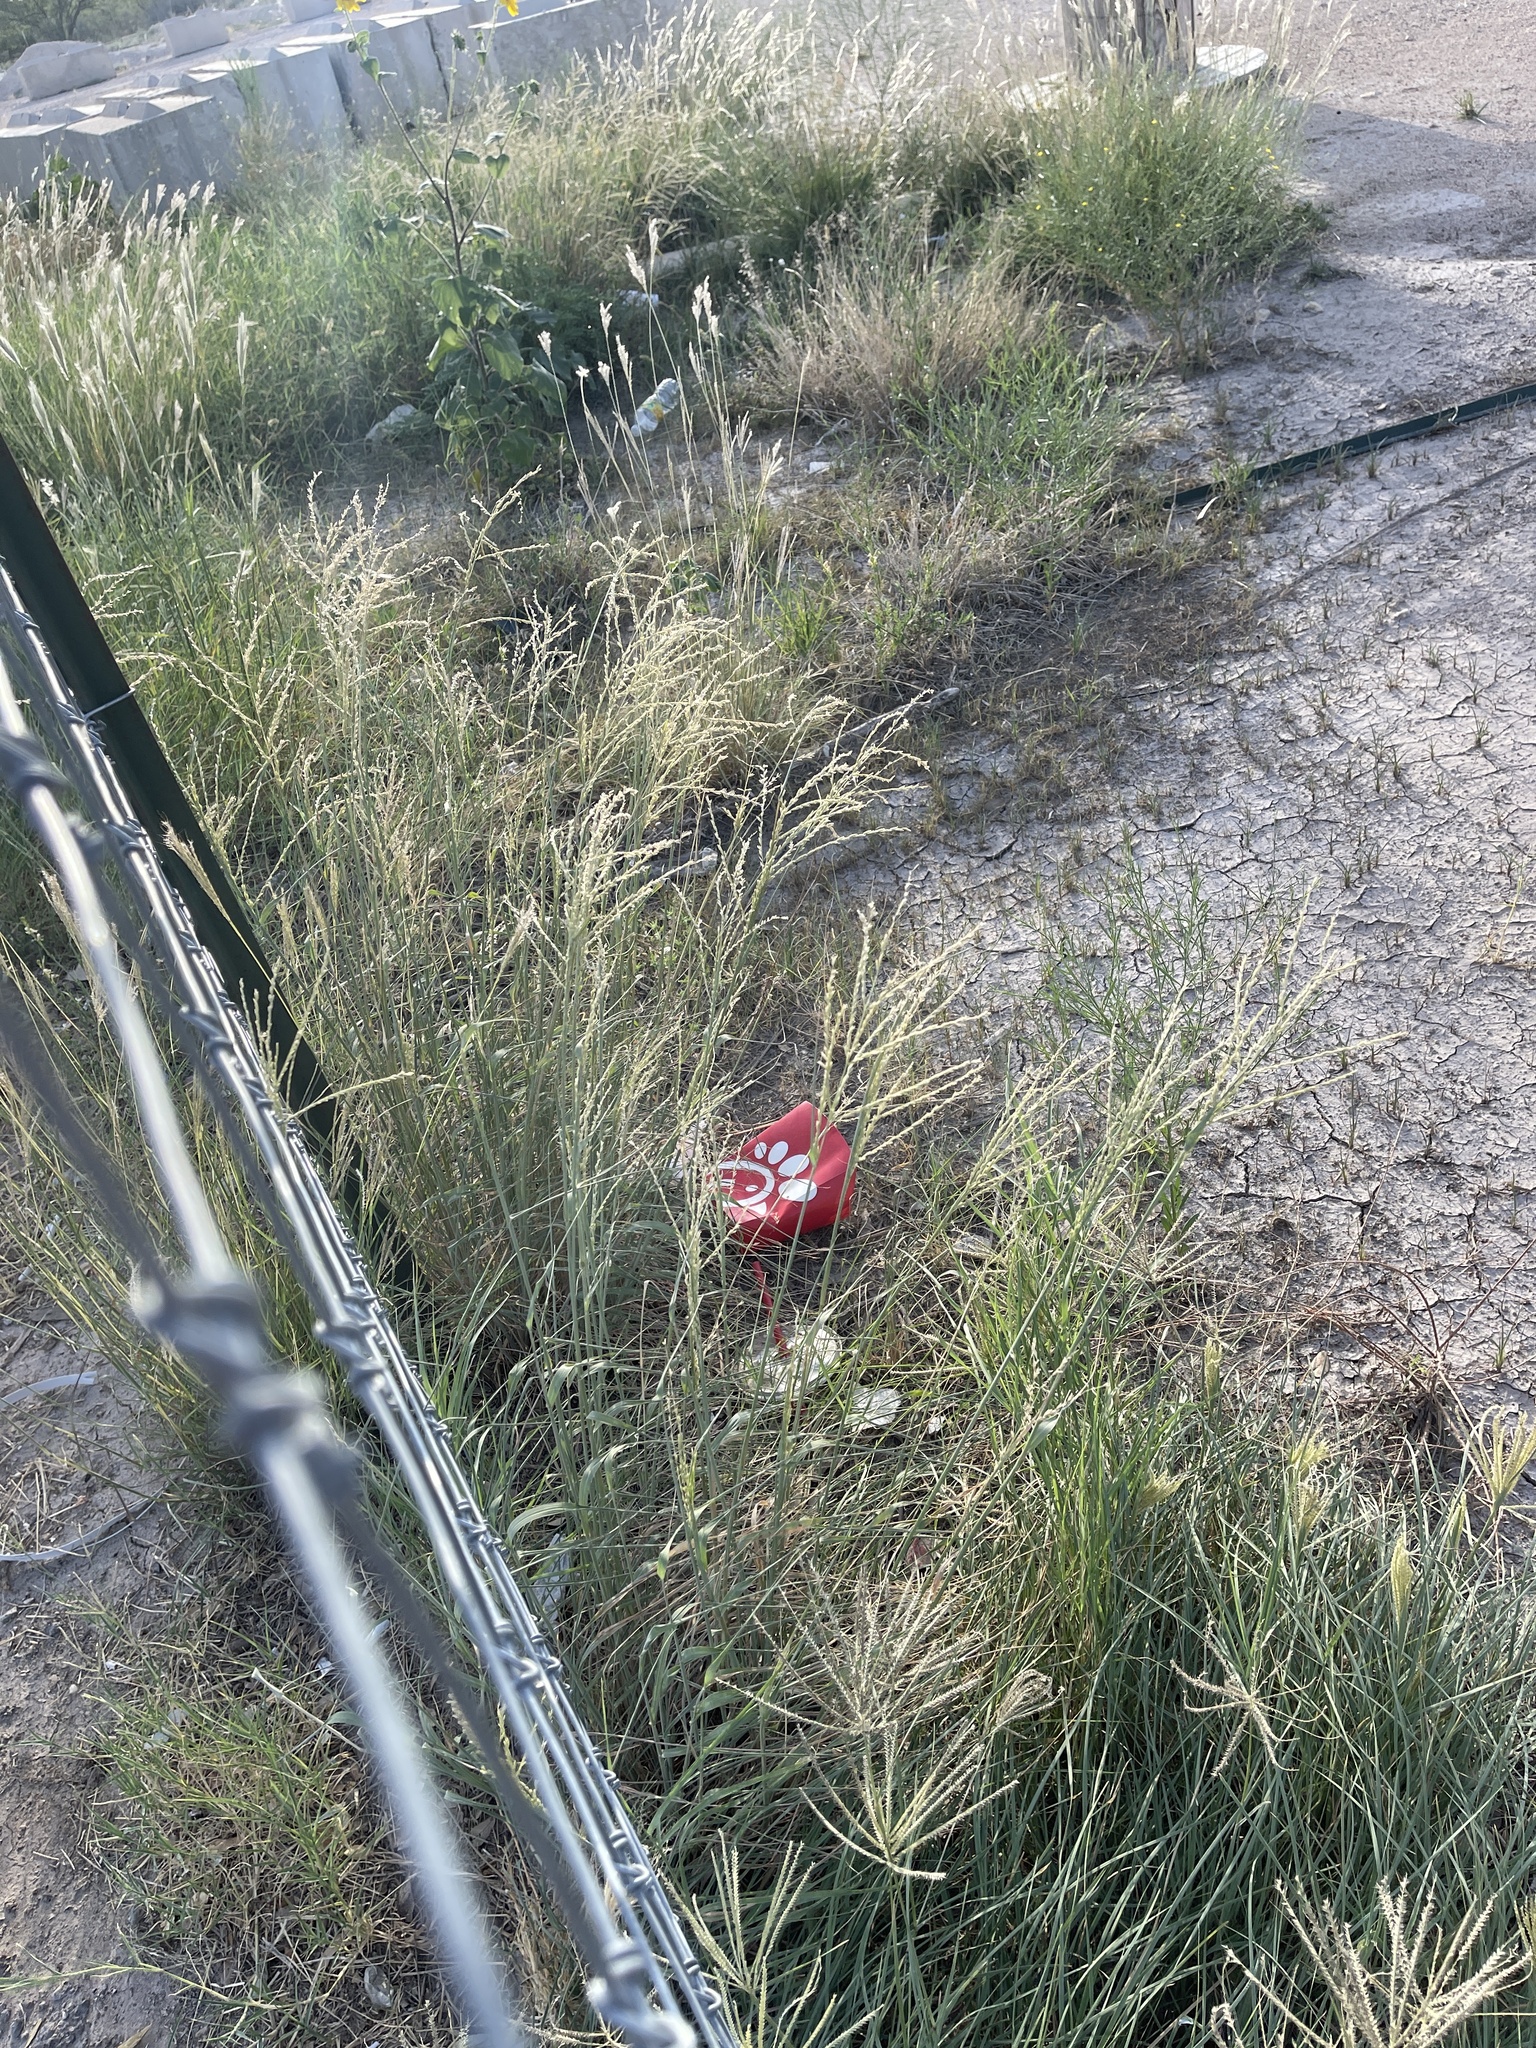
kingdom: Plantae
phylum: Tracheophyta
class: Liliopsida
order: Poales
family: Poaceae
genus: Disakisperma
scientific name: Disakisperma dubium
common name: Green sprangletop
